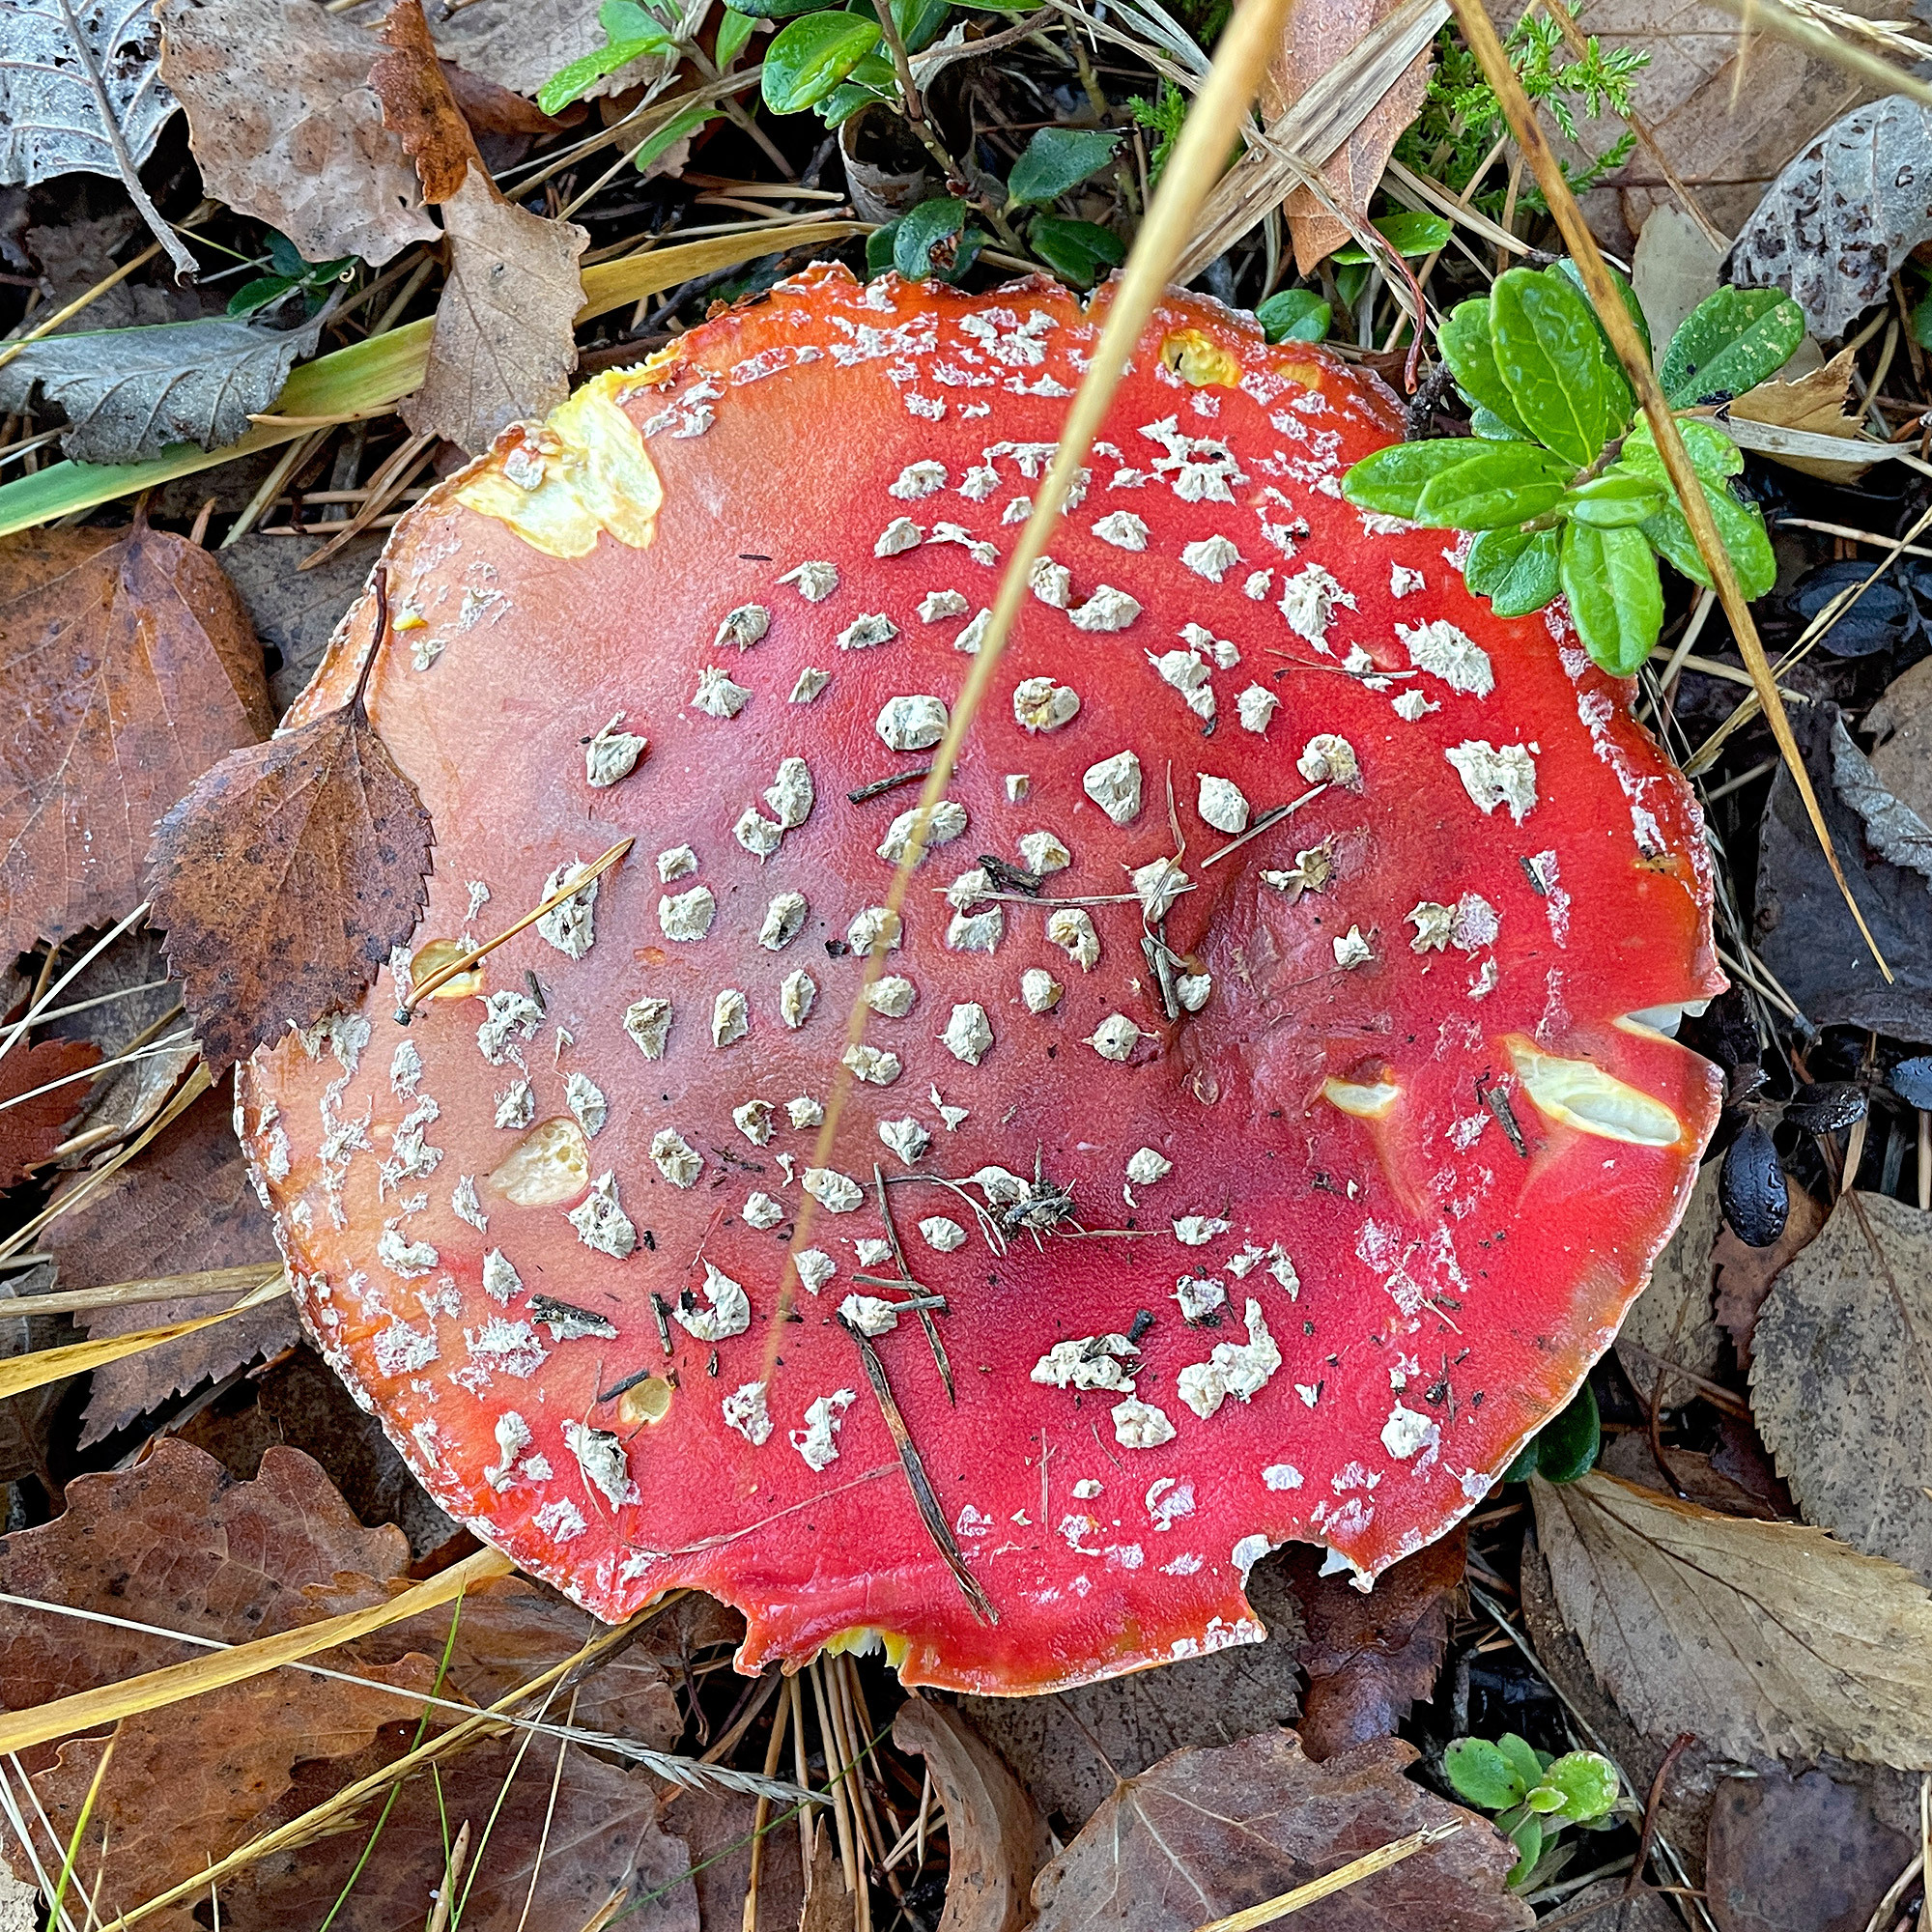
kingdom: Fungi
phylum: Basidiomycota
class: Agaricomycetes
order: Agaricales
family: Amanitaceae
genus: Amanita
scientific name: Amanita muscaria
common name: Fly agaric
